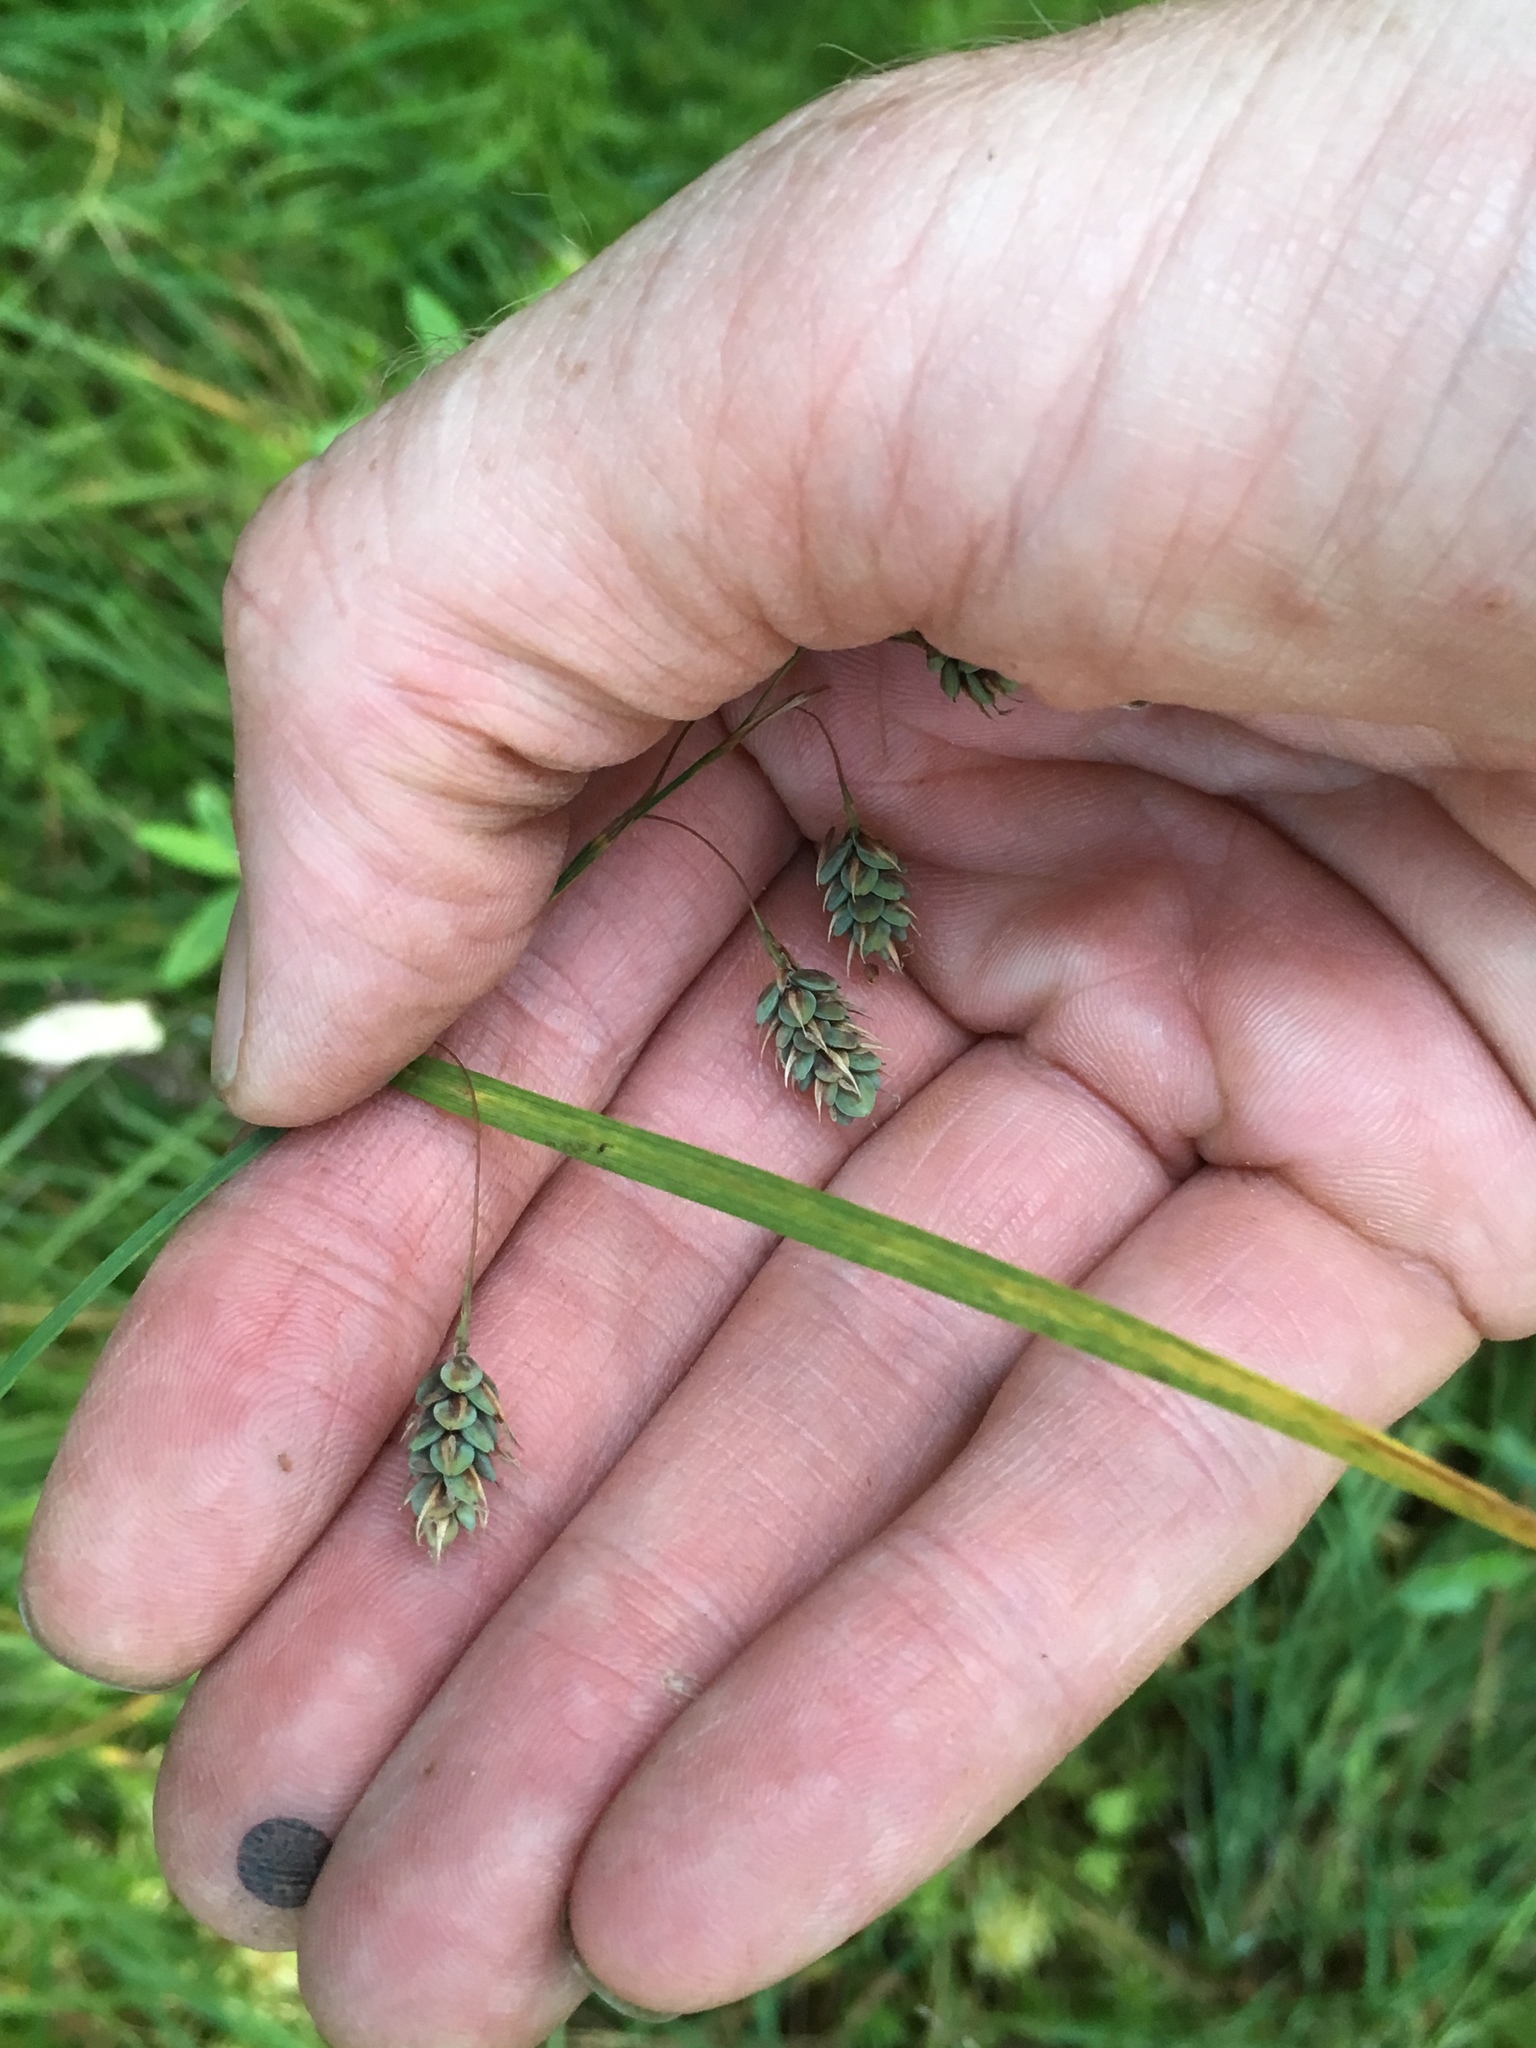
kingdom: Plantae
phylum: Tracheophyta
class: Liliopsida
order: Poales
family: Cyperaceae
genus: Carex
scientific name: Carex magellanica
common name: Bog sedge
